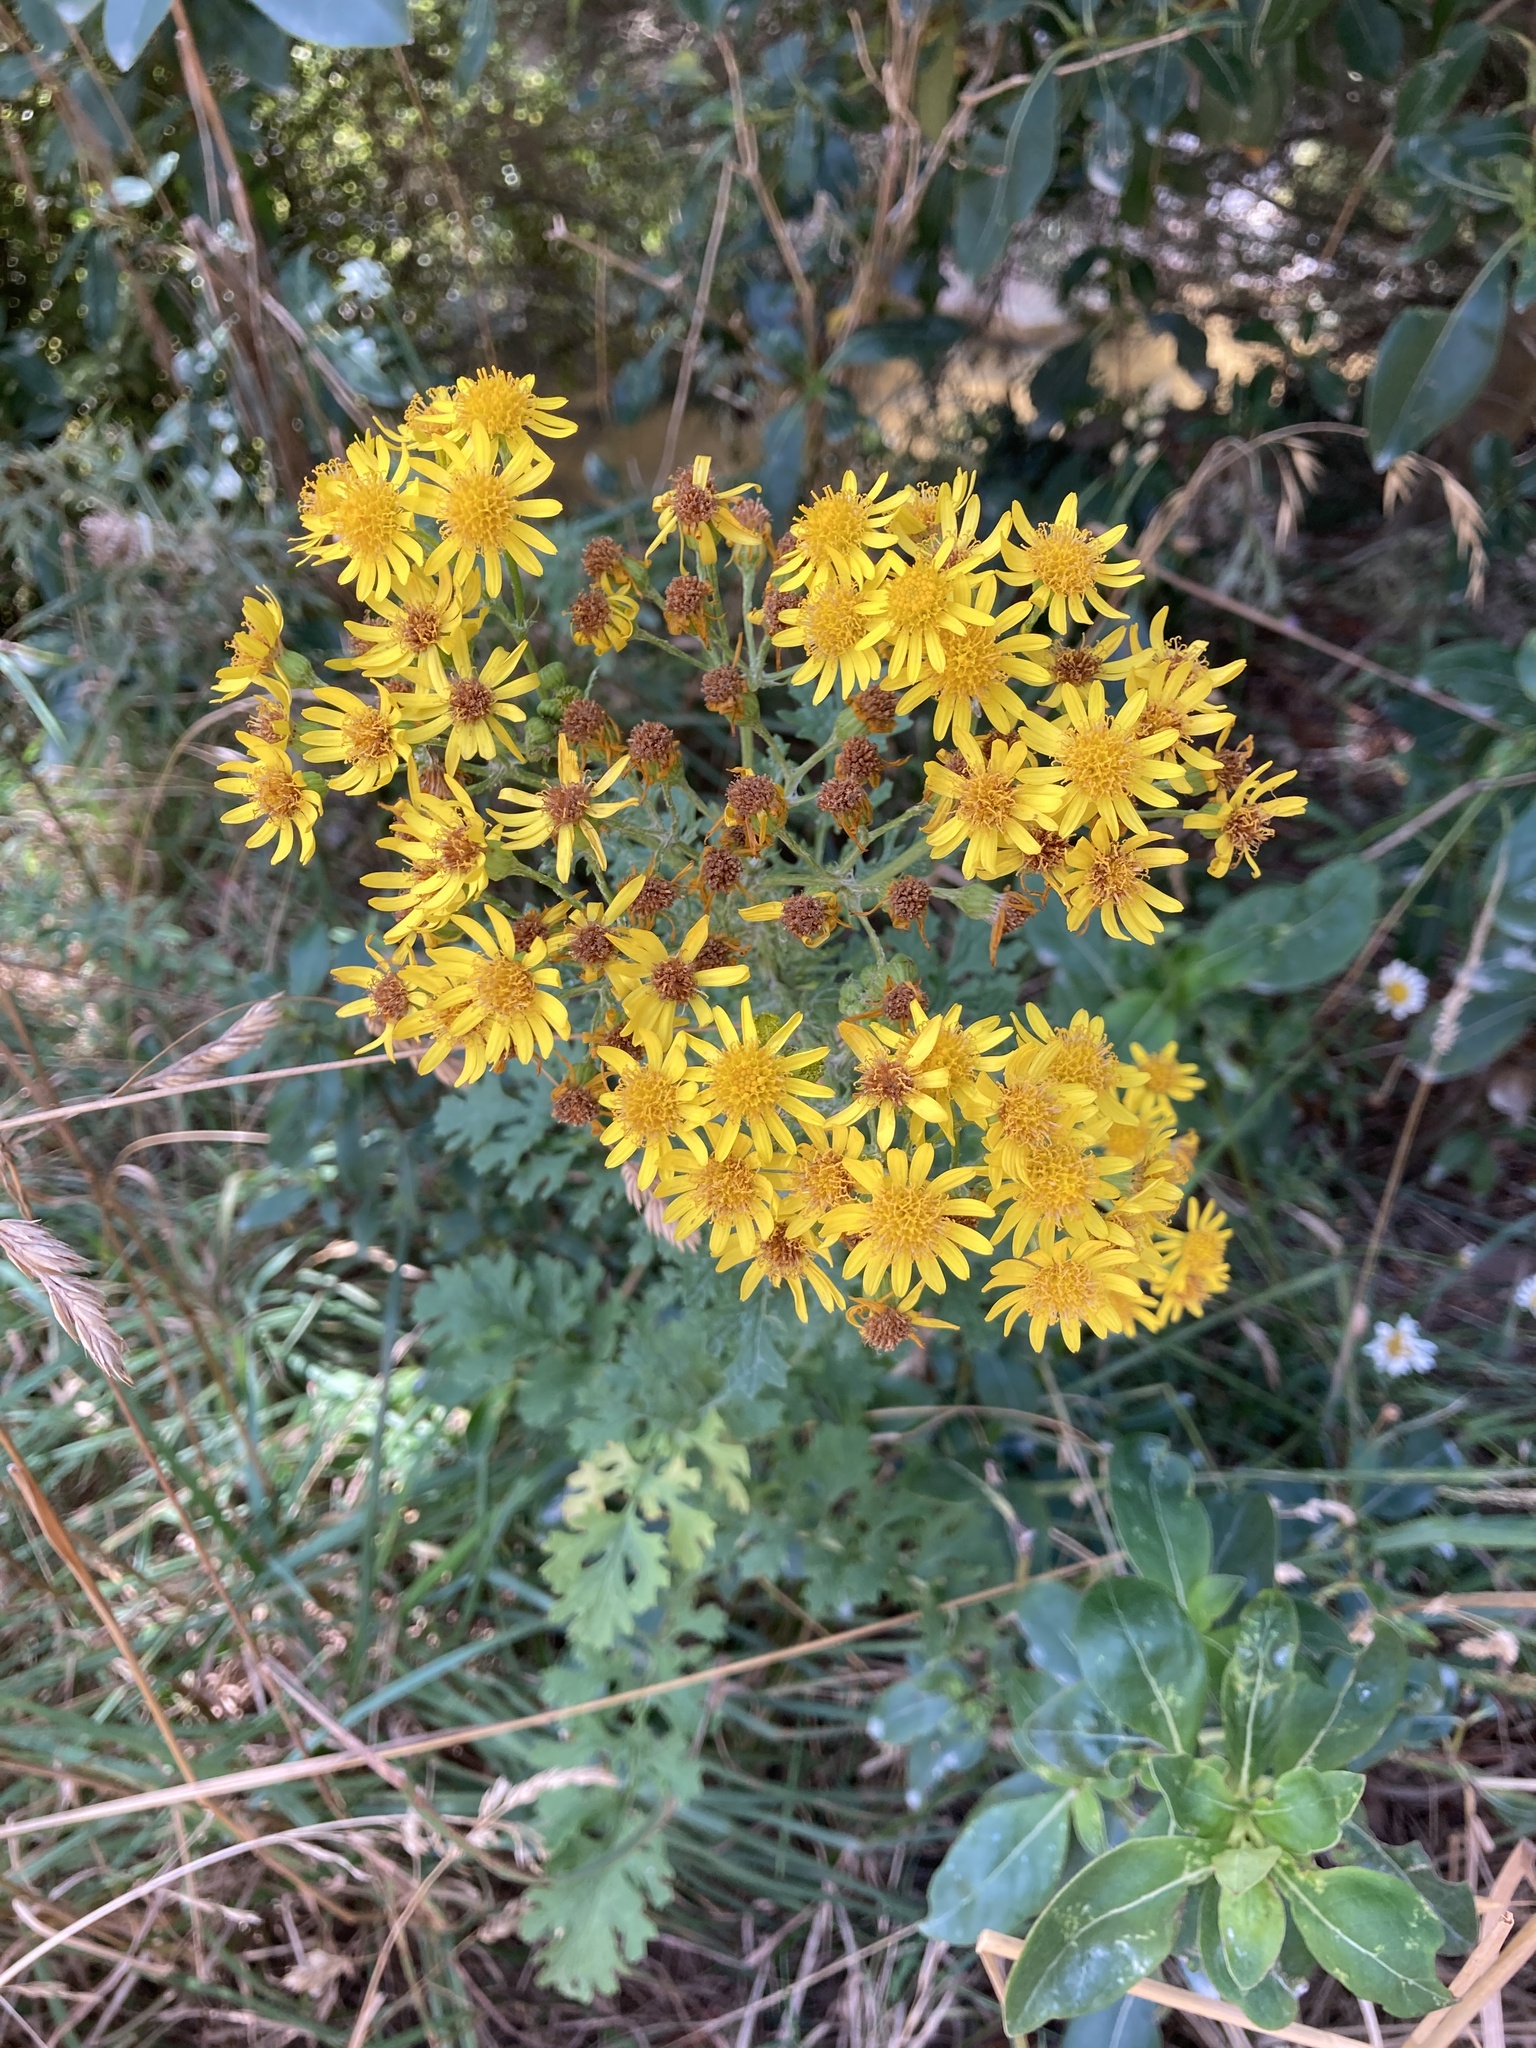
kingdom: Plantae
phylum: Tracheophyta
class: Magnoliopsida
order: Asterales
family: Asteraceae
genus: Jacobaea
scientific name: Jacobaea vulgaris
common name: Stinking willie
